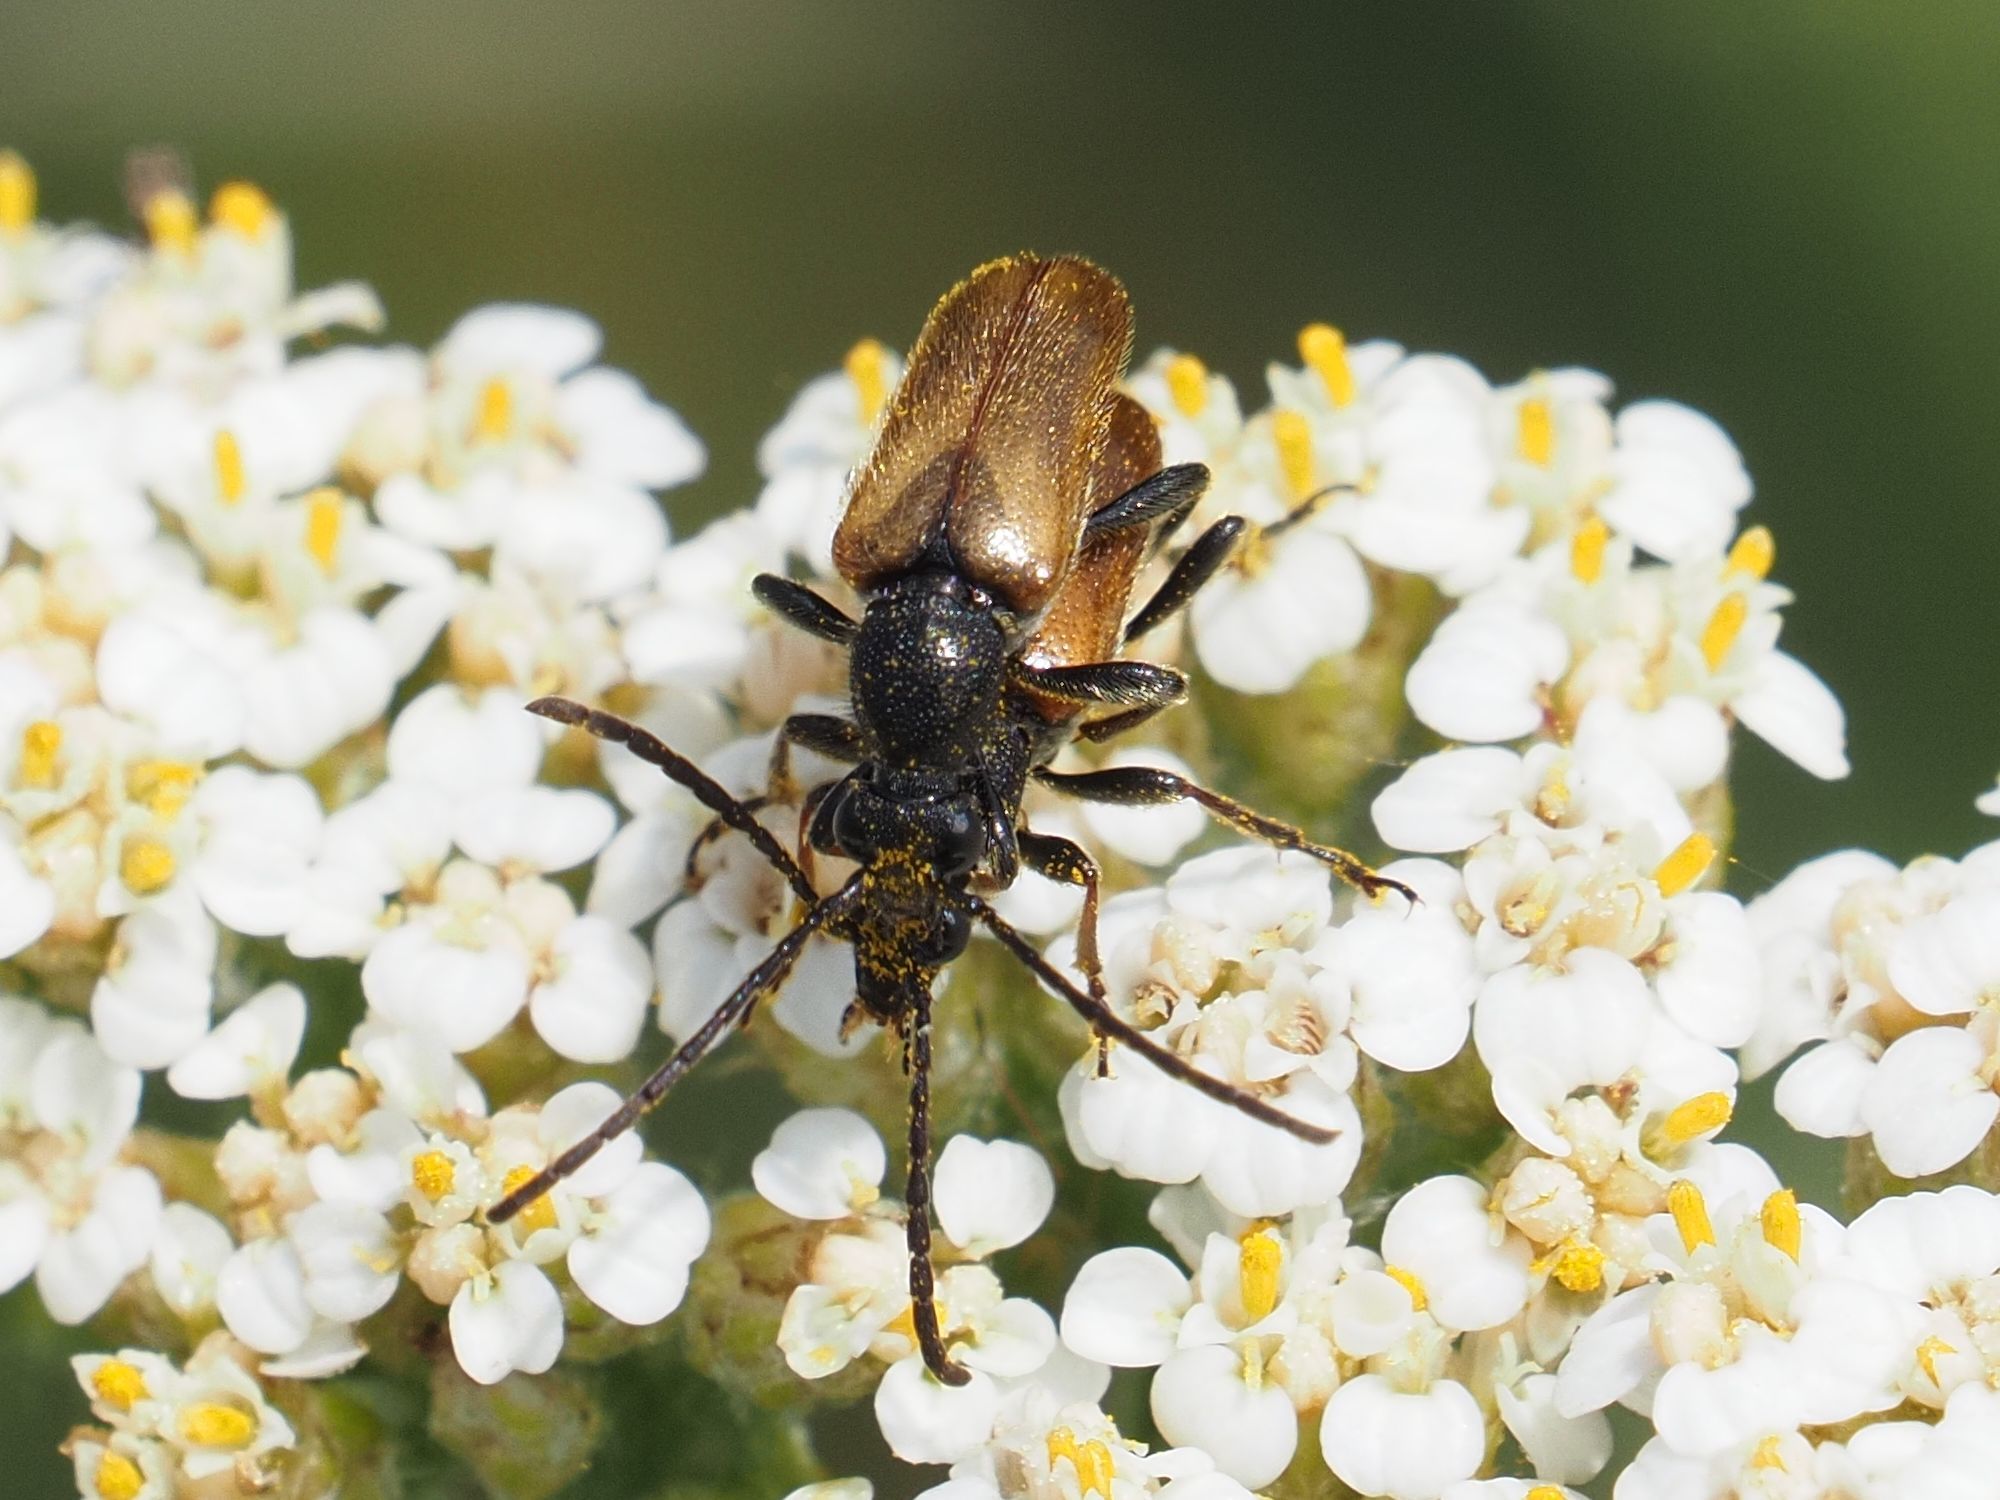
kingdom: Animalia
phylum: Arthropoda
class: Insecta
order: Coleoptera
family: Cerambycidae
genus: Pseudovadonia
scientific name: Pseudovadonia livida
